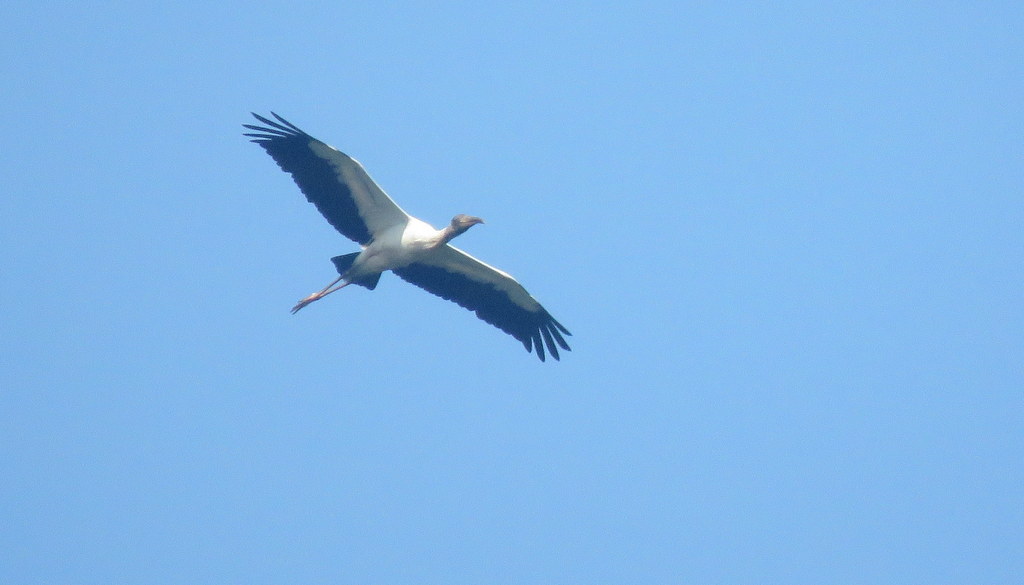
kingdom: Animalia
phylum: Chordata
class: Aves
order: Ciconiiformes
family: Ciconiidae
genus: Mycteria
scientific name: Mycteria americana
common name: Wood stork
